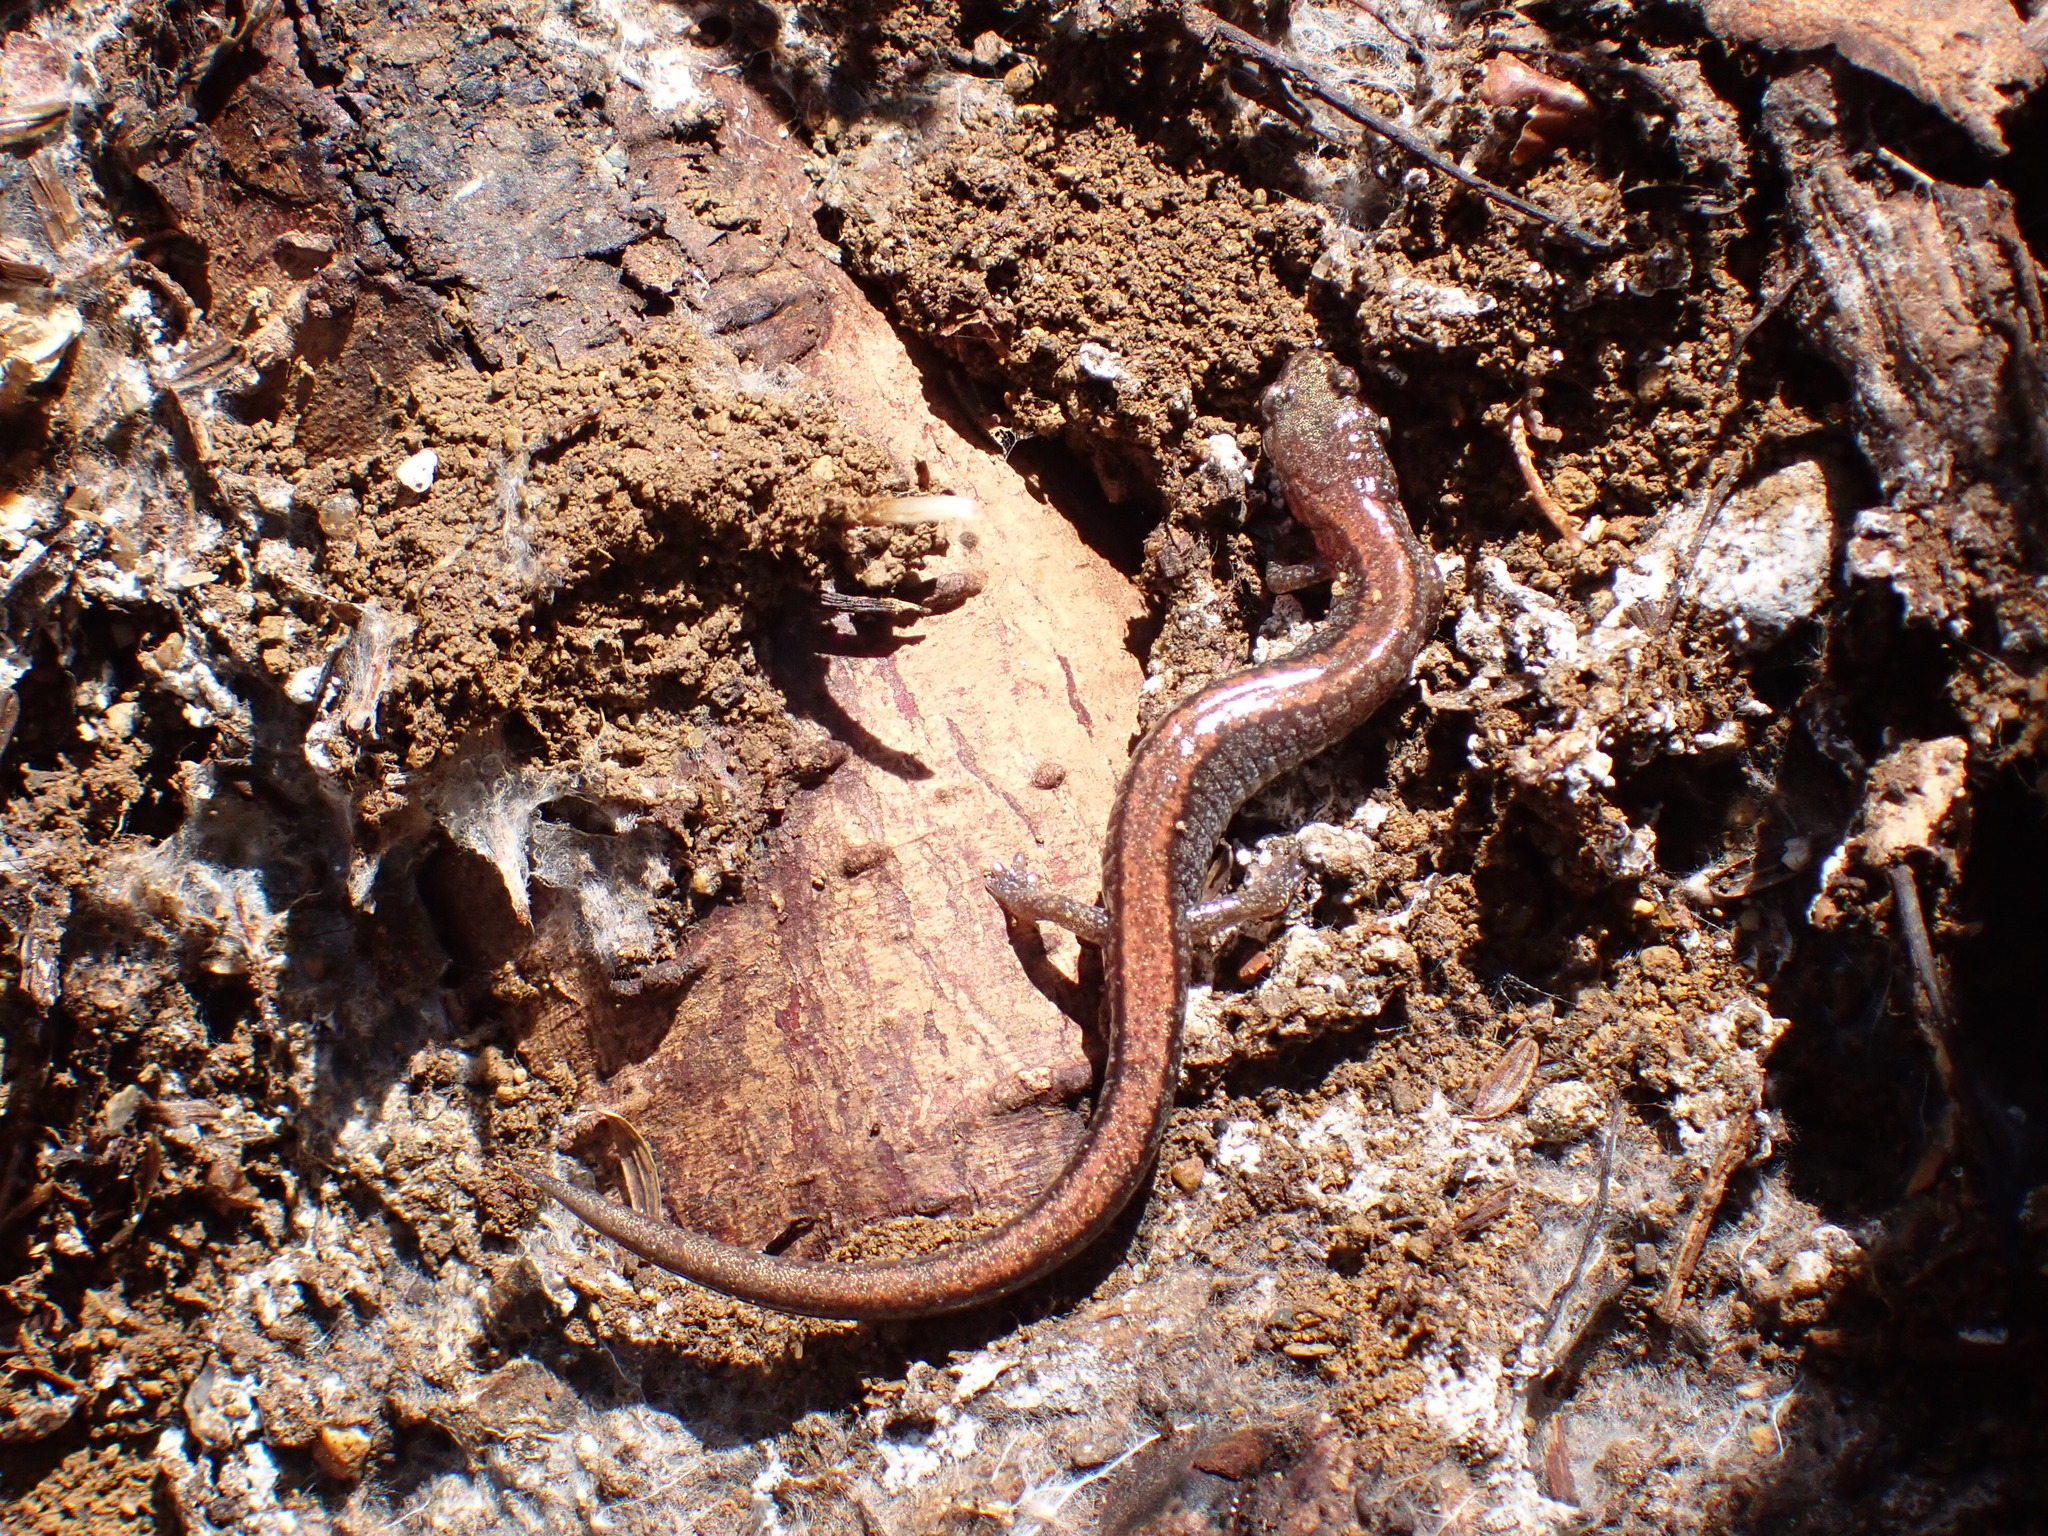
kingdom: Animalia
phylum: Chordata
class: Amphibia
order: Caudata
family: Plethodontidae
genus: Plethodon
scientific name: Plethodon cinereus
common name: Redback salamander
